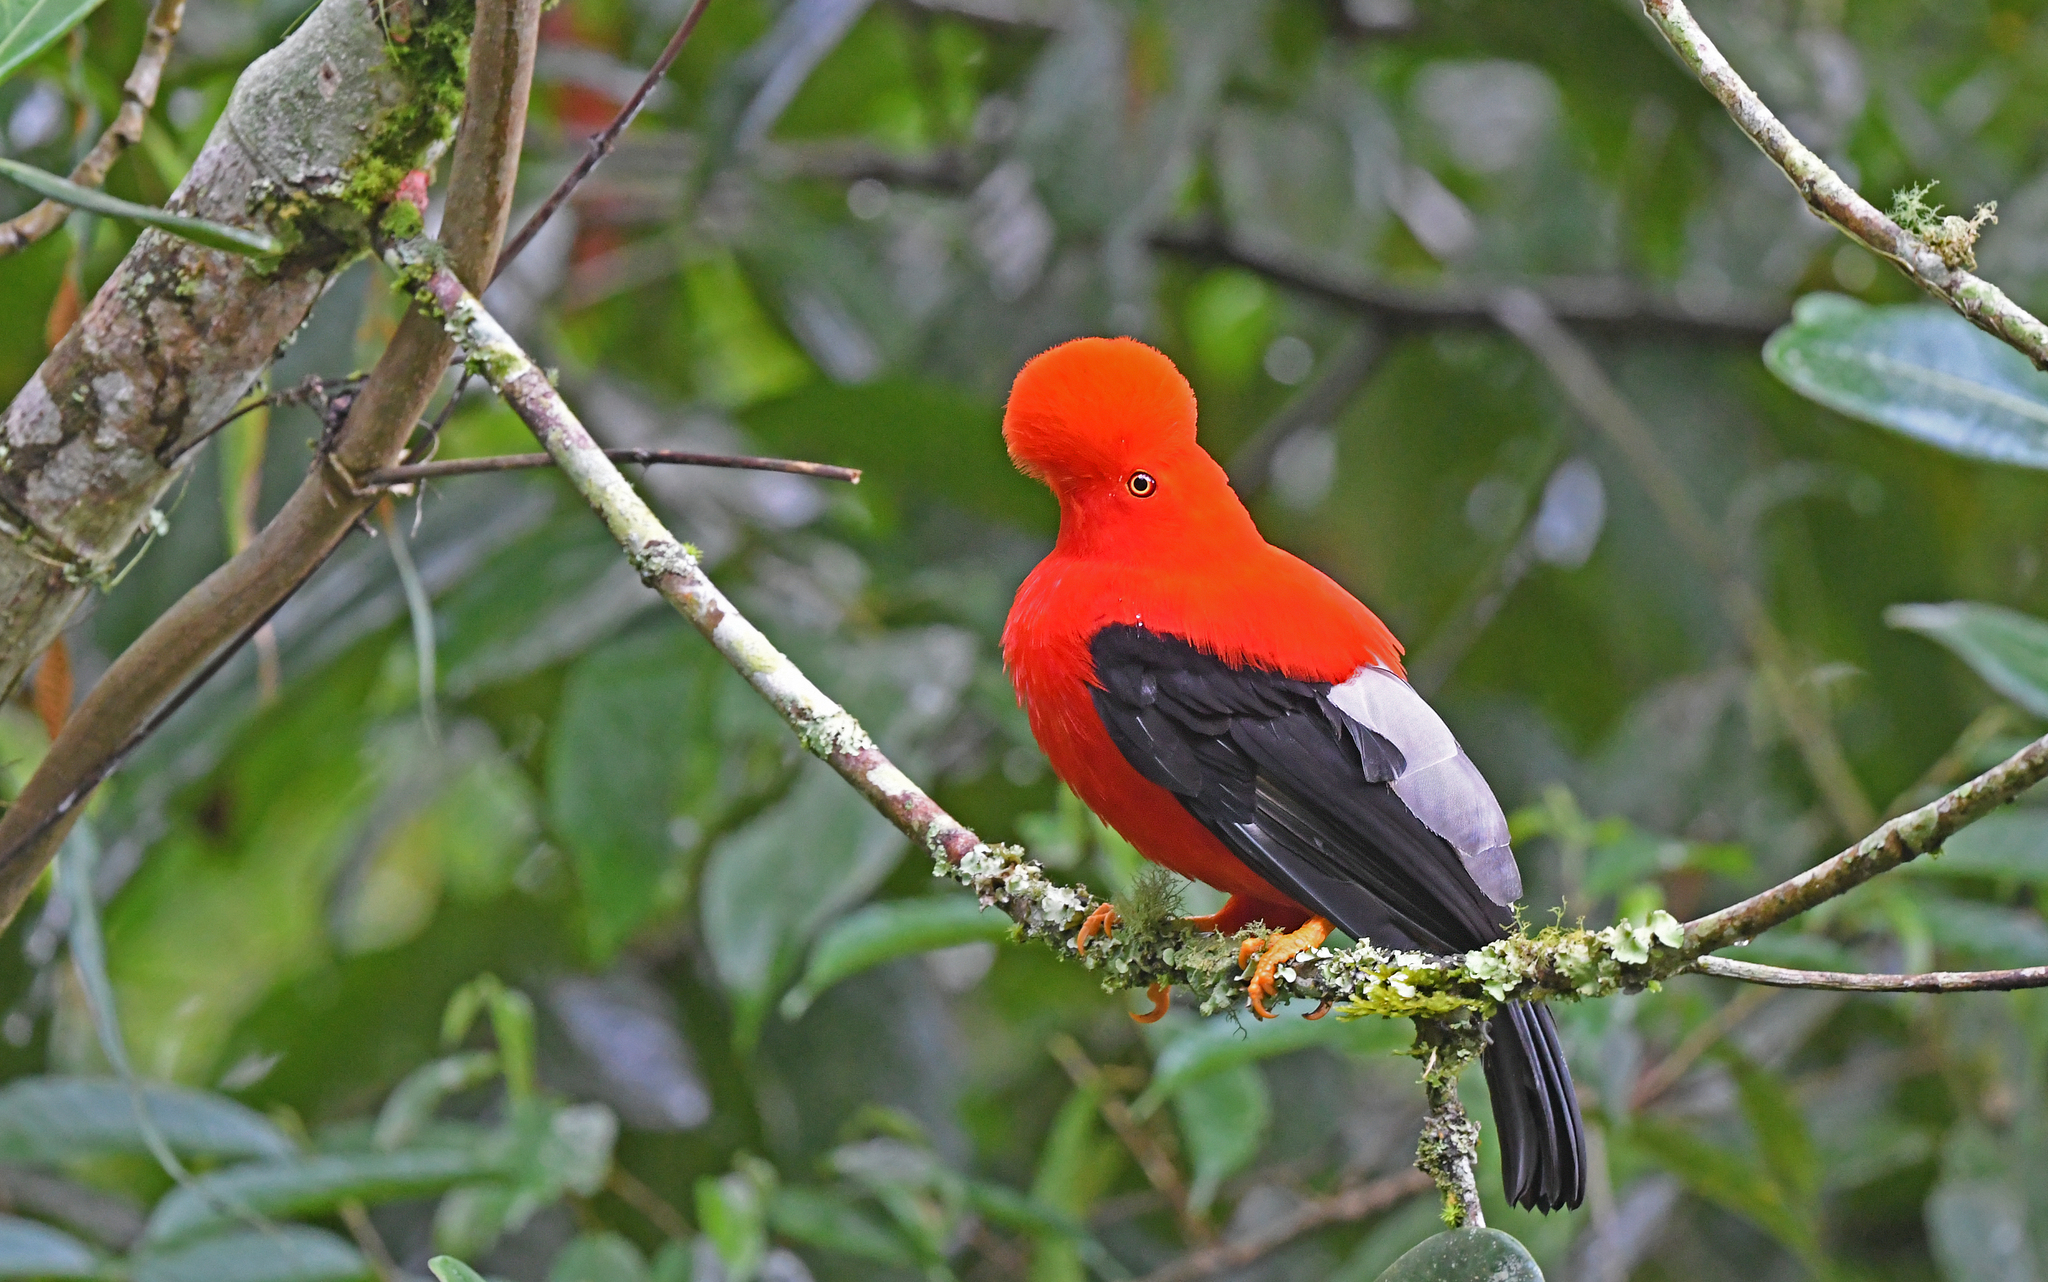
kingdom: Animalia
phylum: Chordata
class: Aves
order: Passeriformes
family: Cotingidae
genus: Rupicola
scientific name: Rupicola peruvianus
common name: Andean cock-of-the-rock
